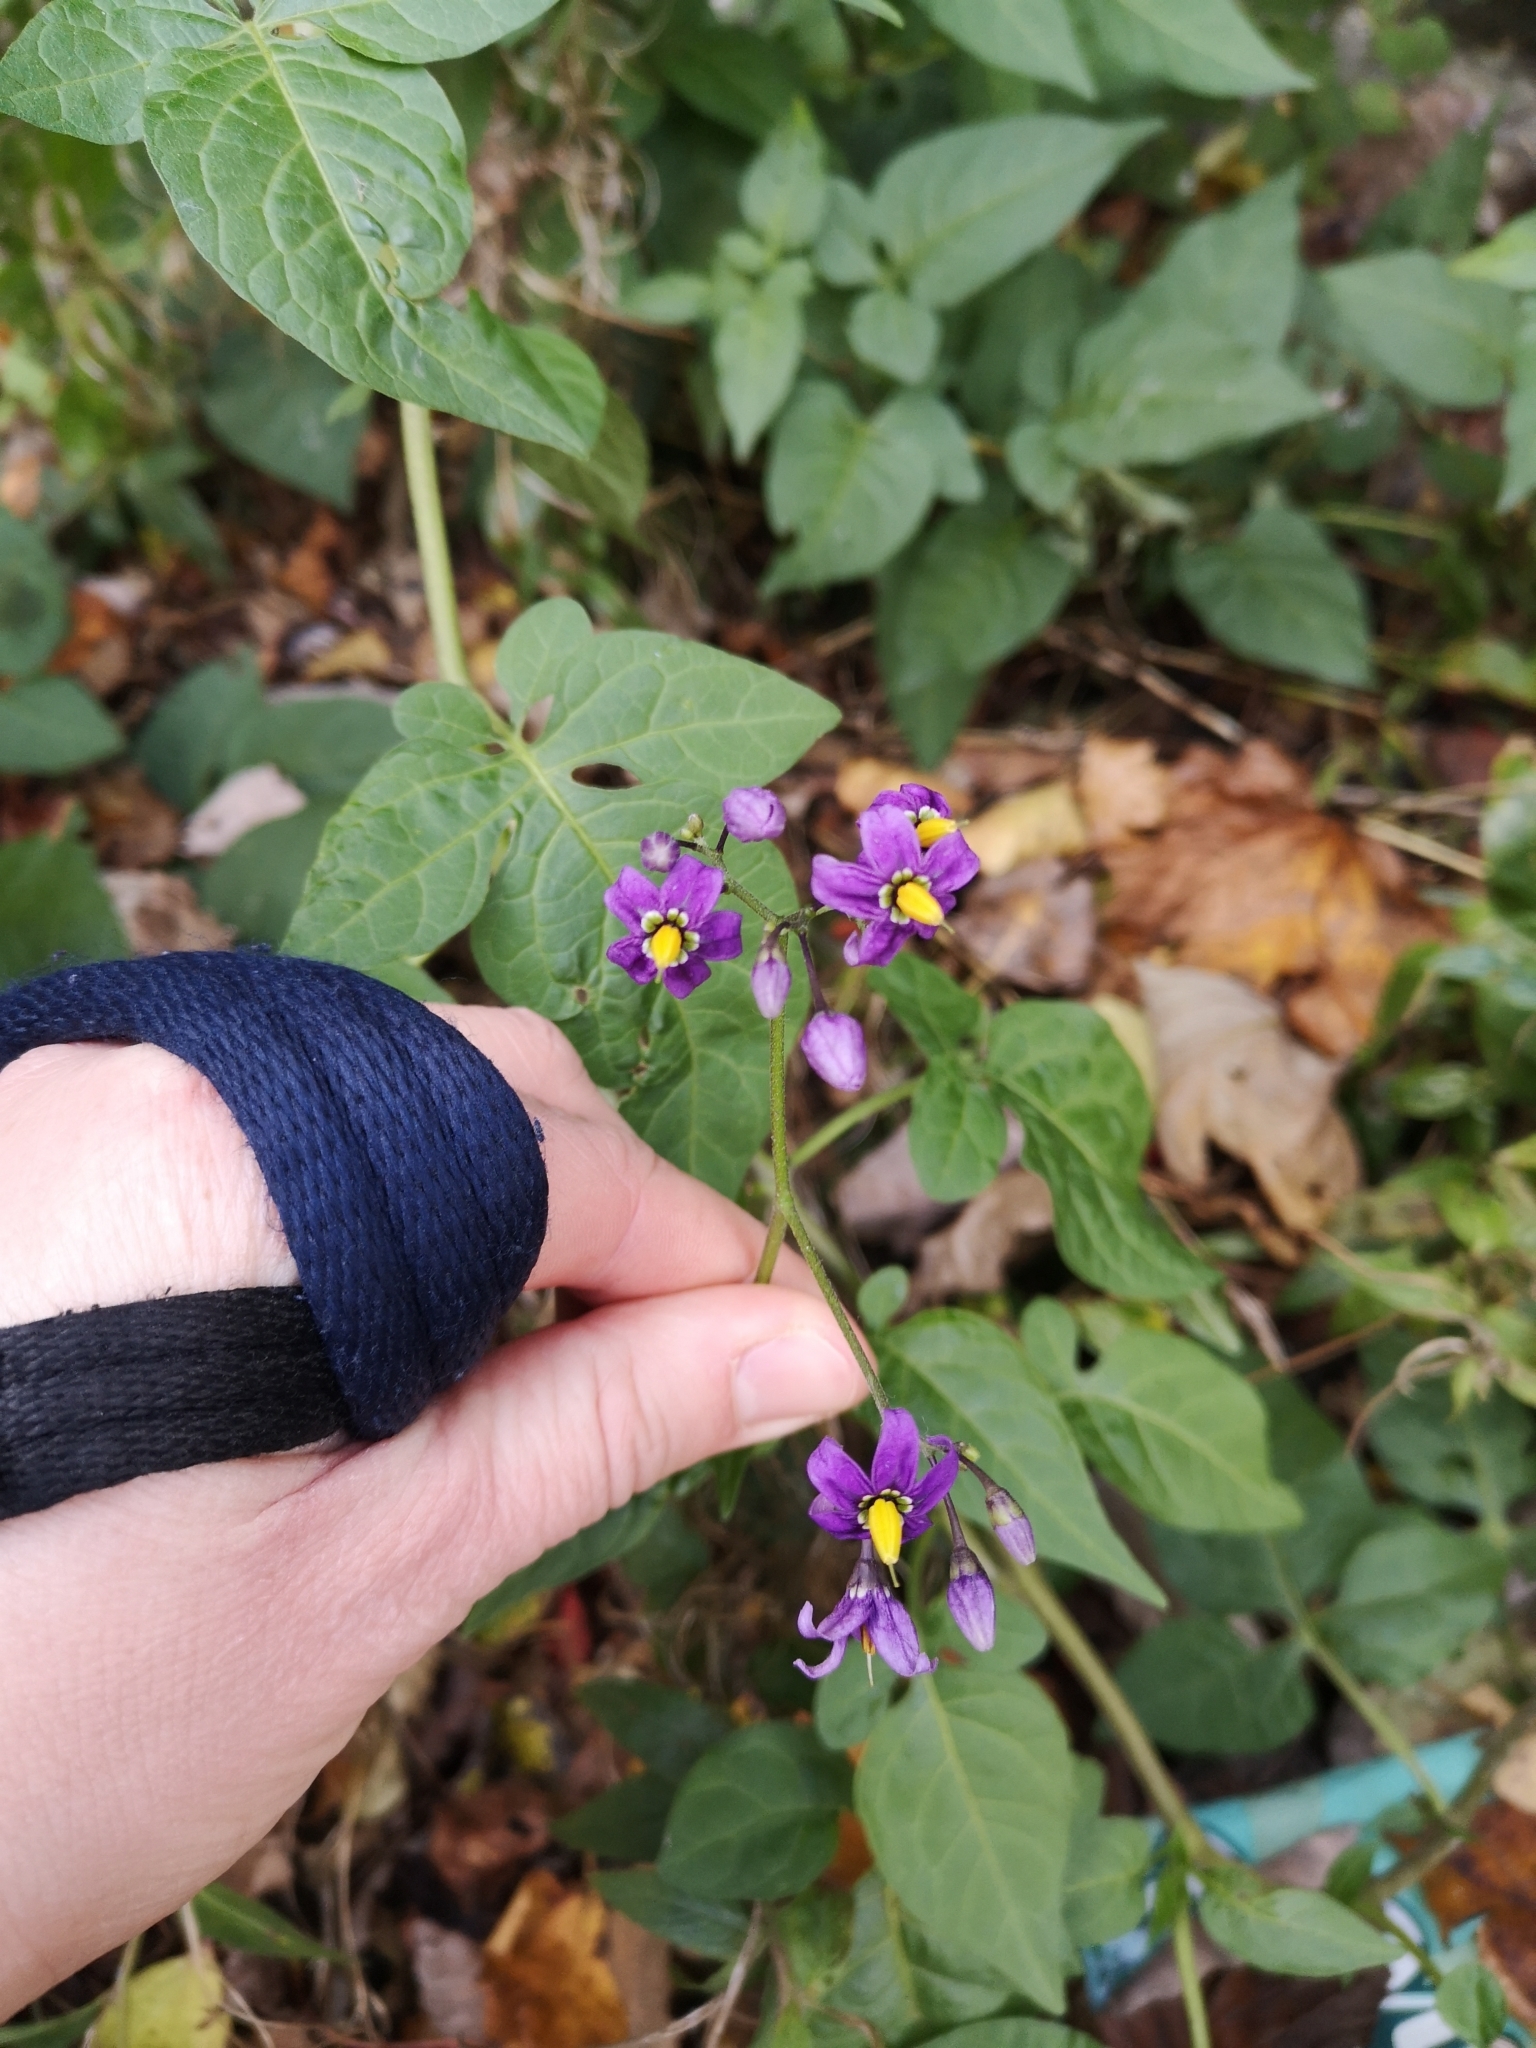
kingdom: Plantae
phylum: Tracheophyta
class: Magnoliopsida
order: Solanales
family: Solanaceae
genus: Solanum
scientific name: Solanum dulcamara
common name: Climbing nightshade
